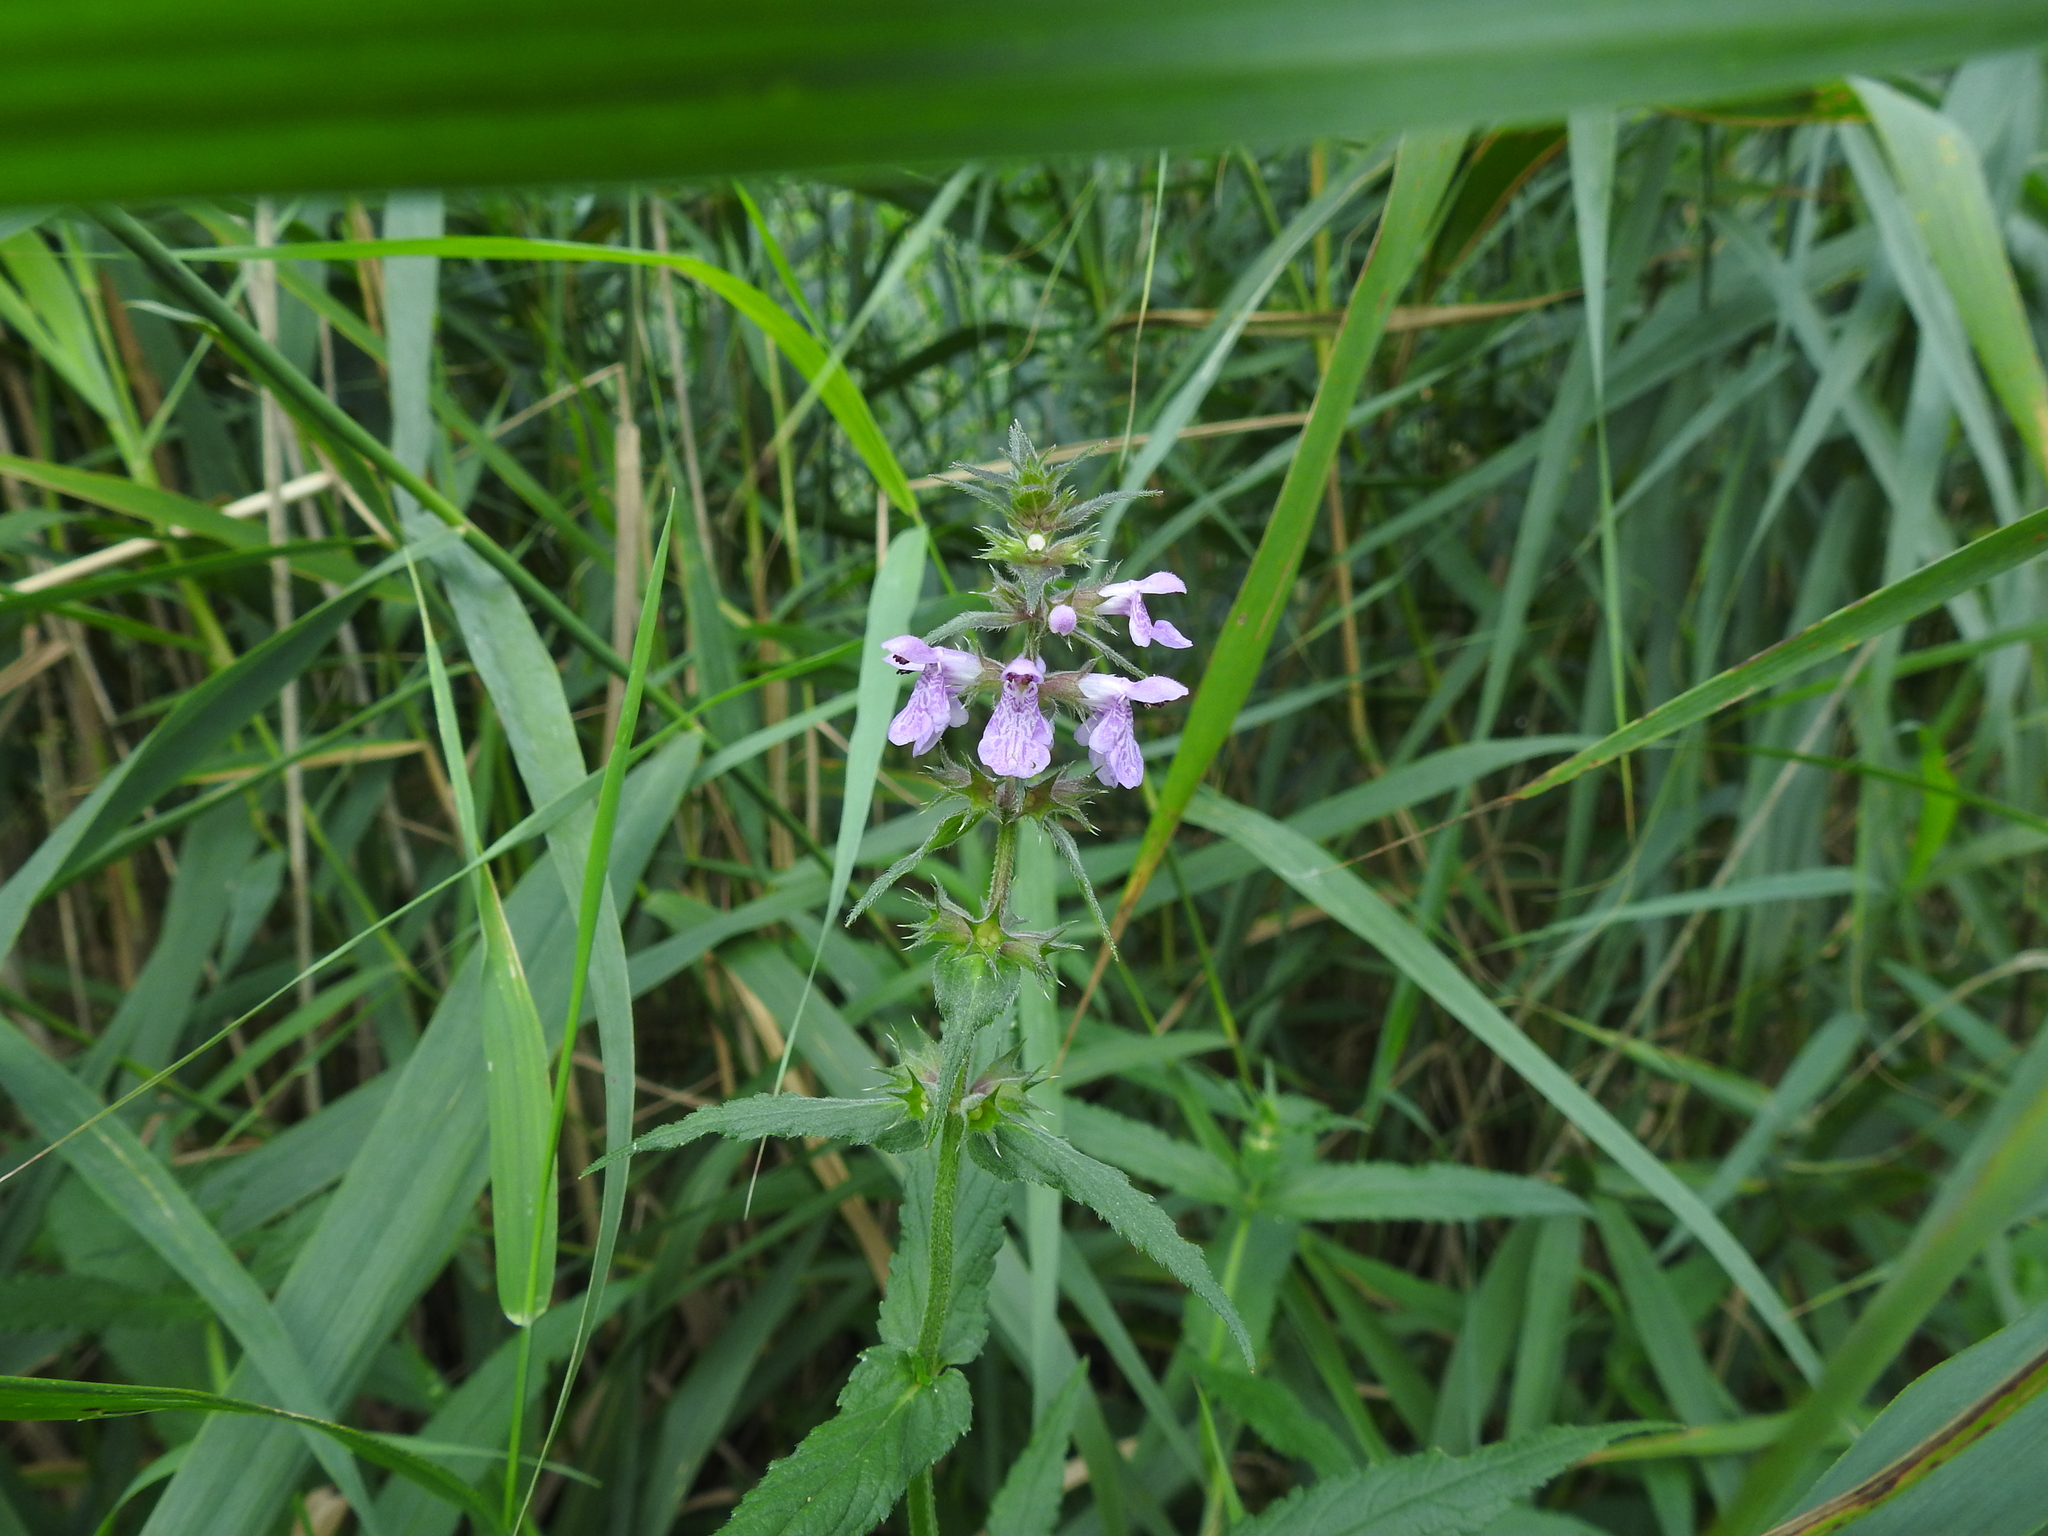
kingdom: Plantae
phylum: Tracheophyta
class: Magnoliopsida
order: Lamiales
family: Lamiaceae
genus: Stachys
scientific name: Stachys palustris
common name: Marsh woundwort
